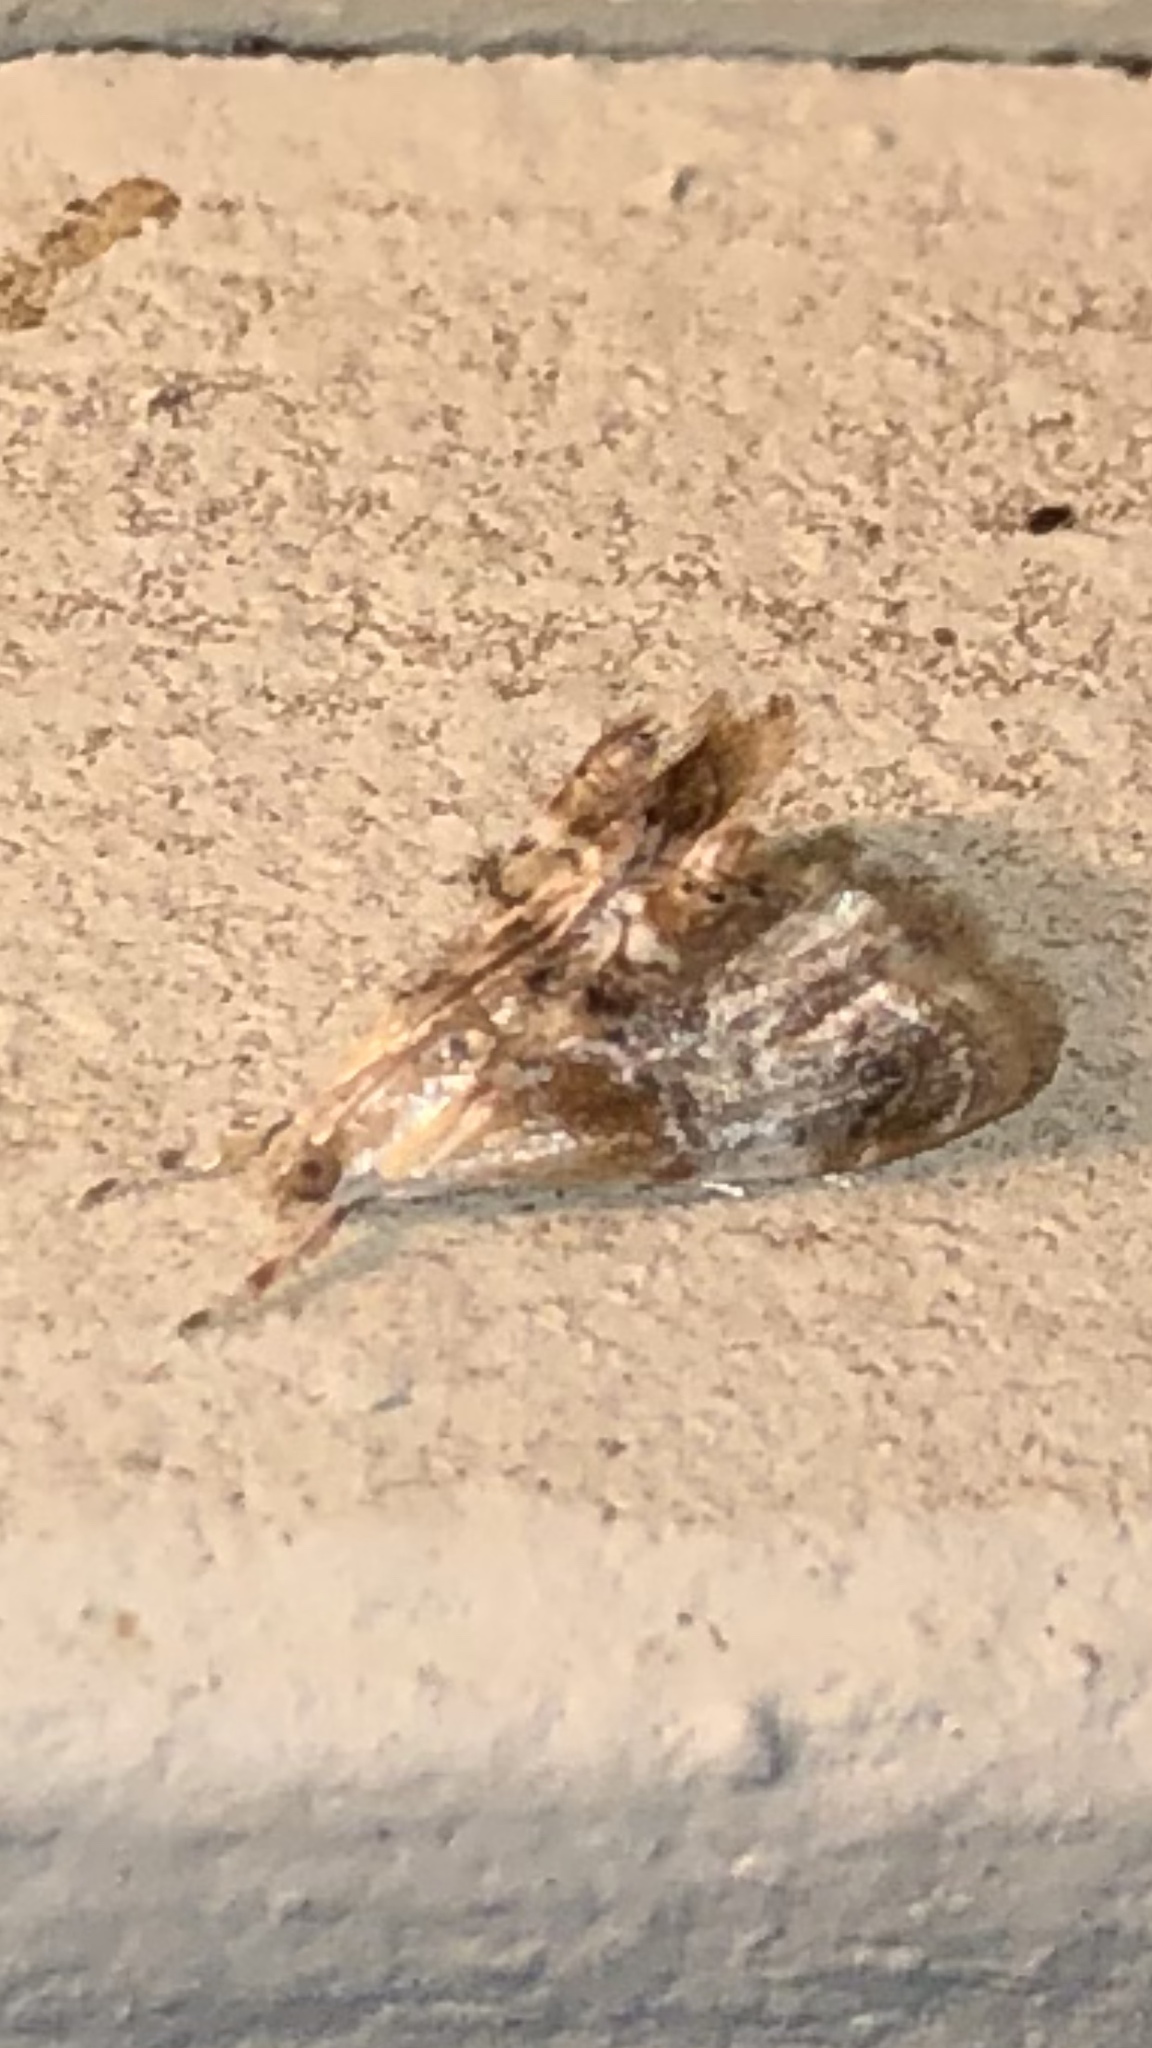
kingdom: Animalia
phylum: Arthropoda
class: Insecta
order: Lepidoptera
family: Crambidae
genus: Dicymolomia
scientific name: Dicymolomia julianalis
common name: Julia's dicymolomia moth
